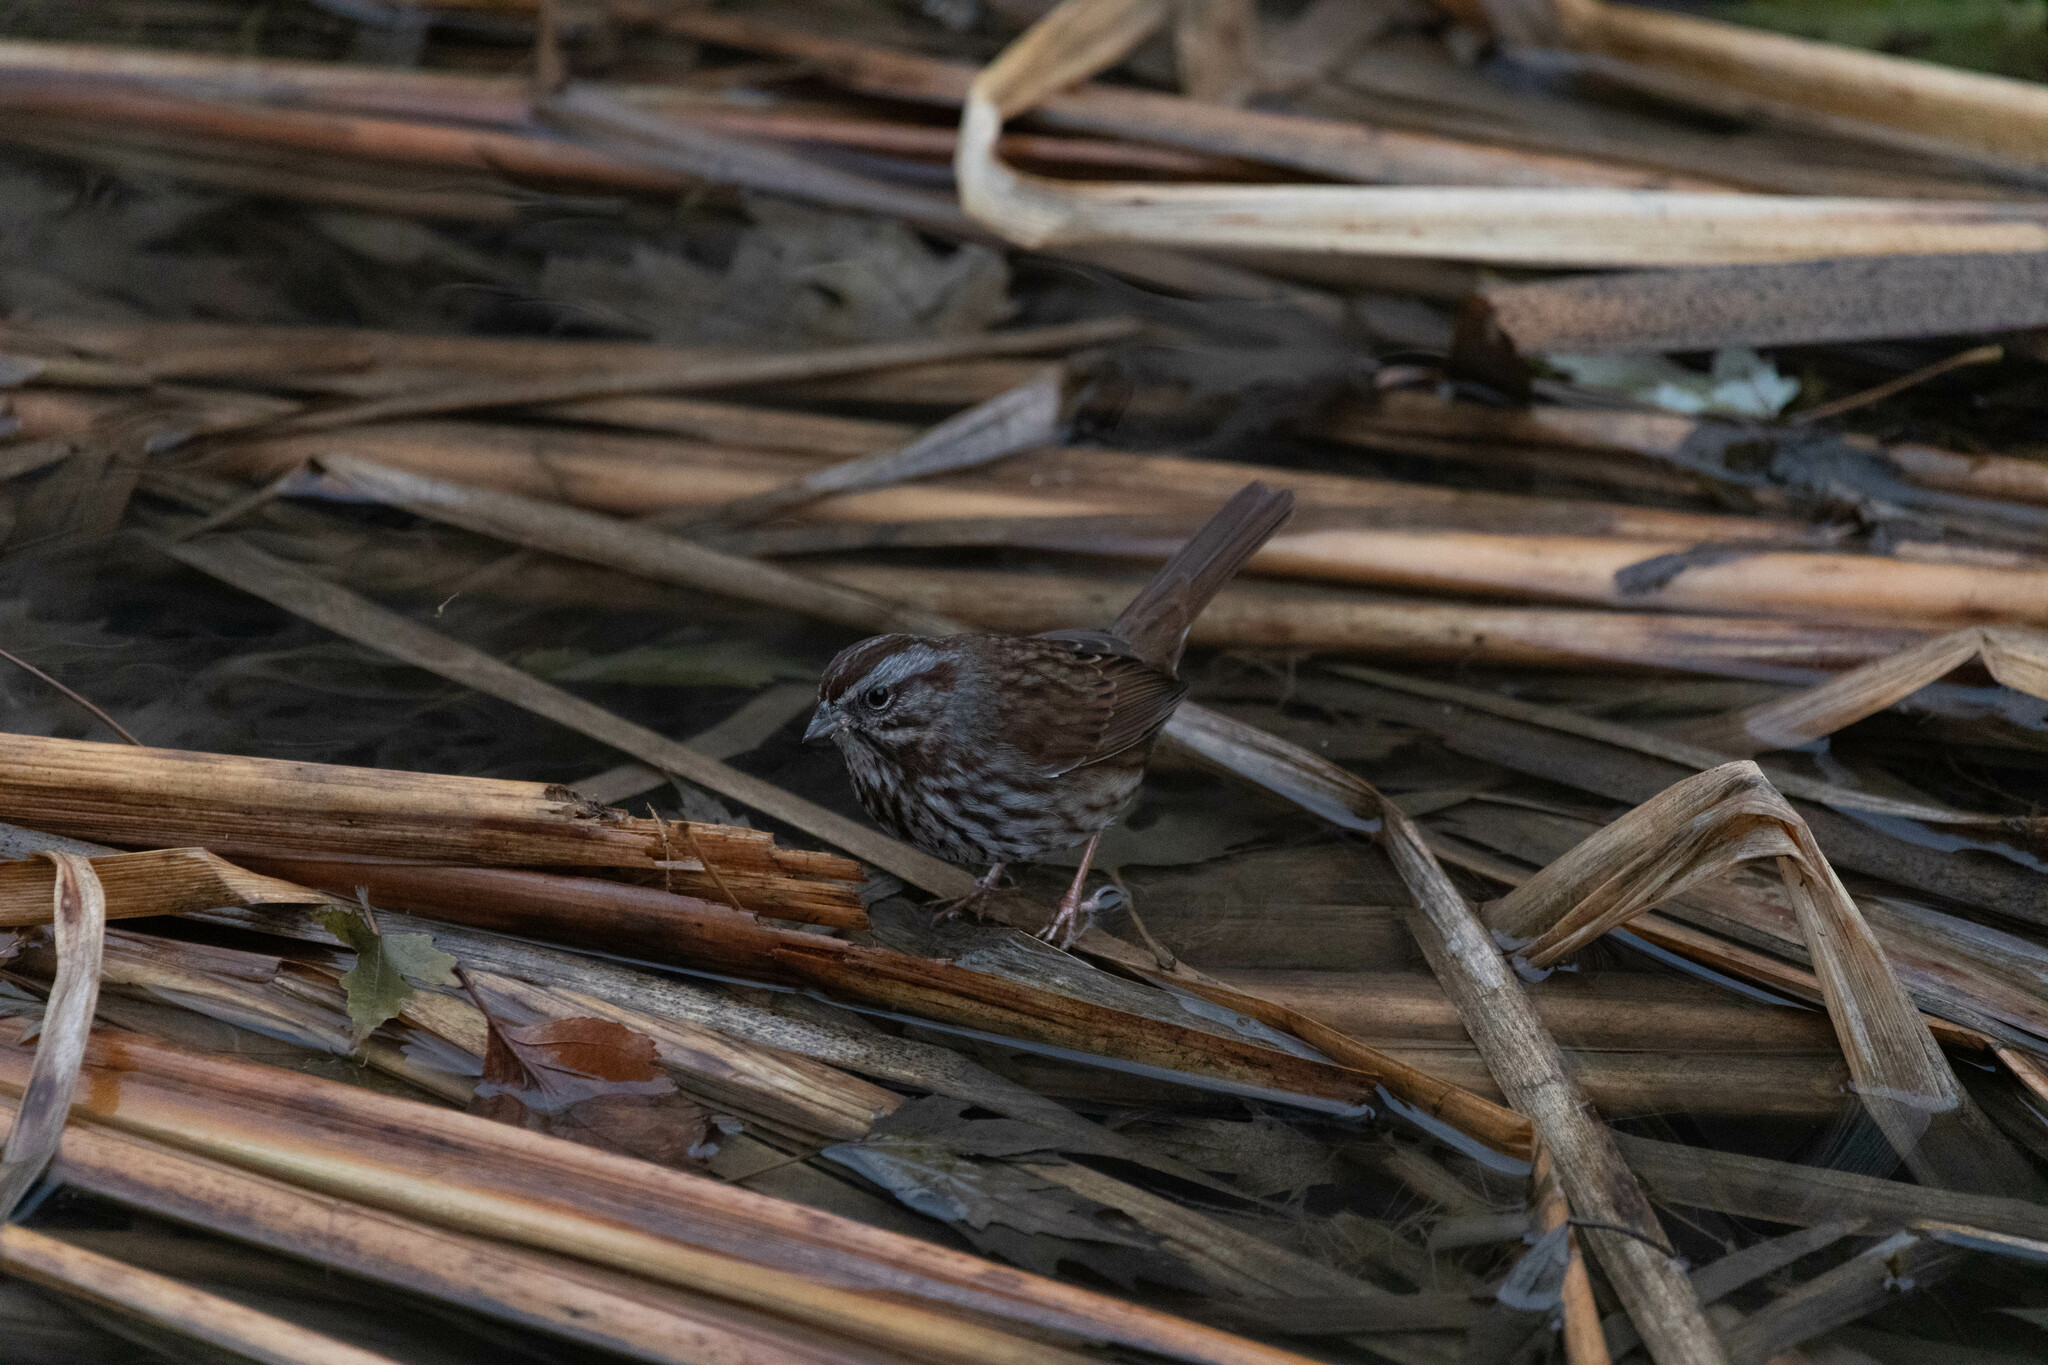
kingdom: Animalia
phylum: Chordata
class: Aves
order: Passeriformes
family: Passerellidae
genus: Melospiza
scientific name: Melospiza melodia
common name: Song sparrow
